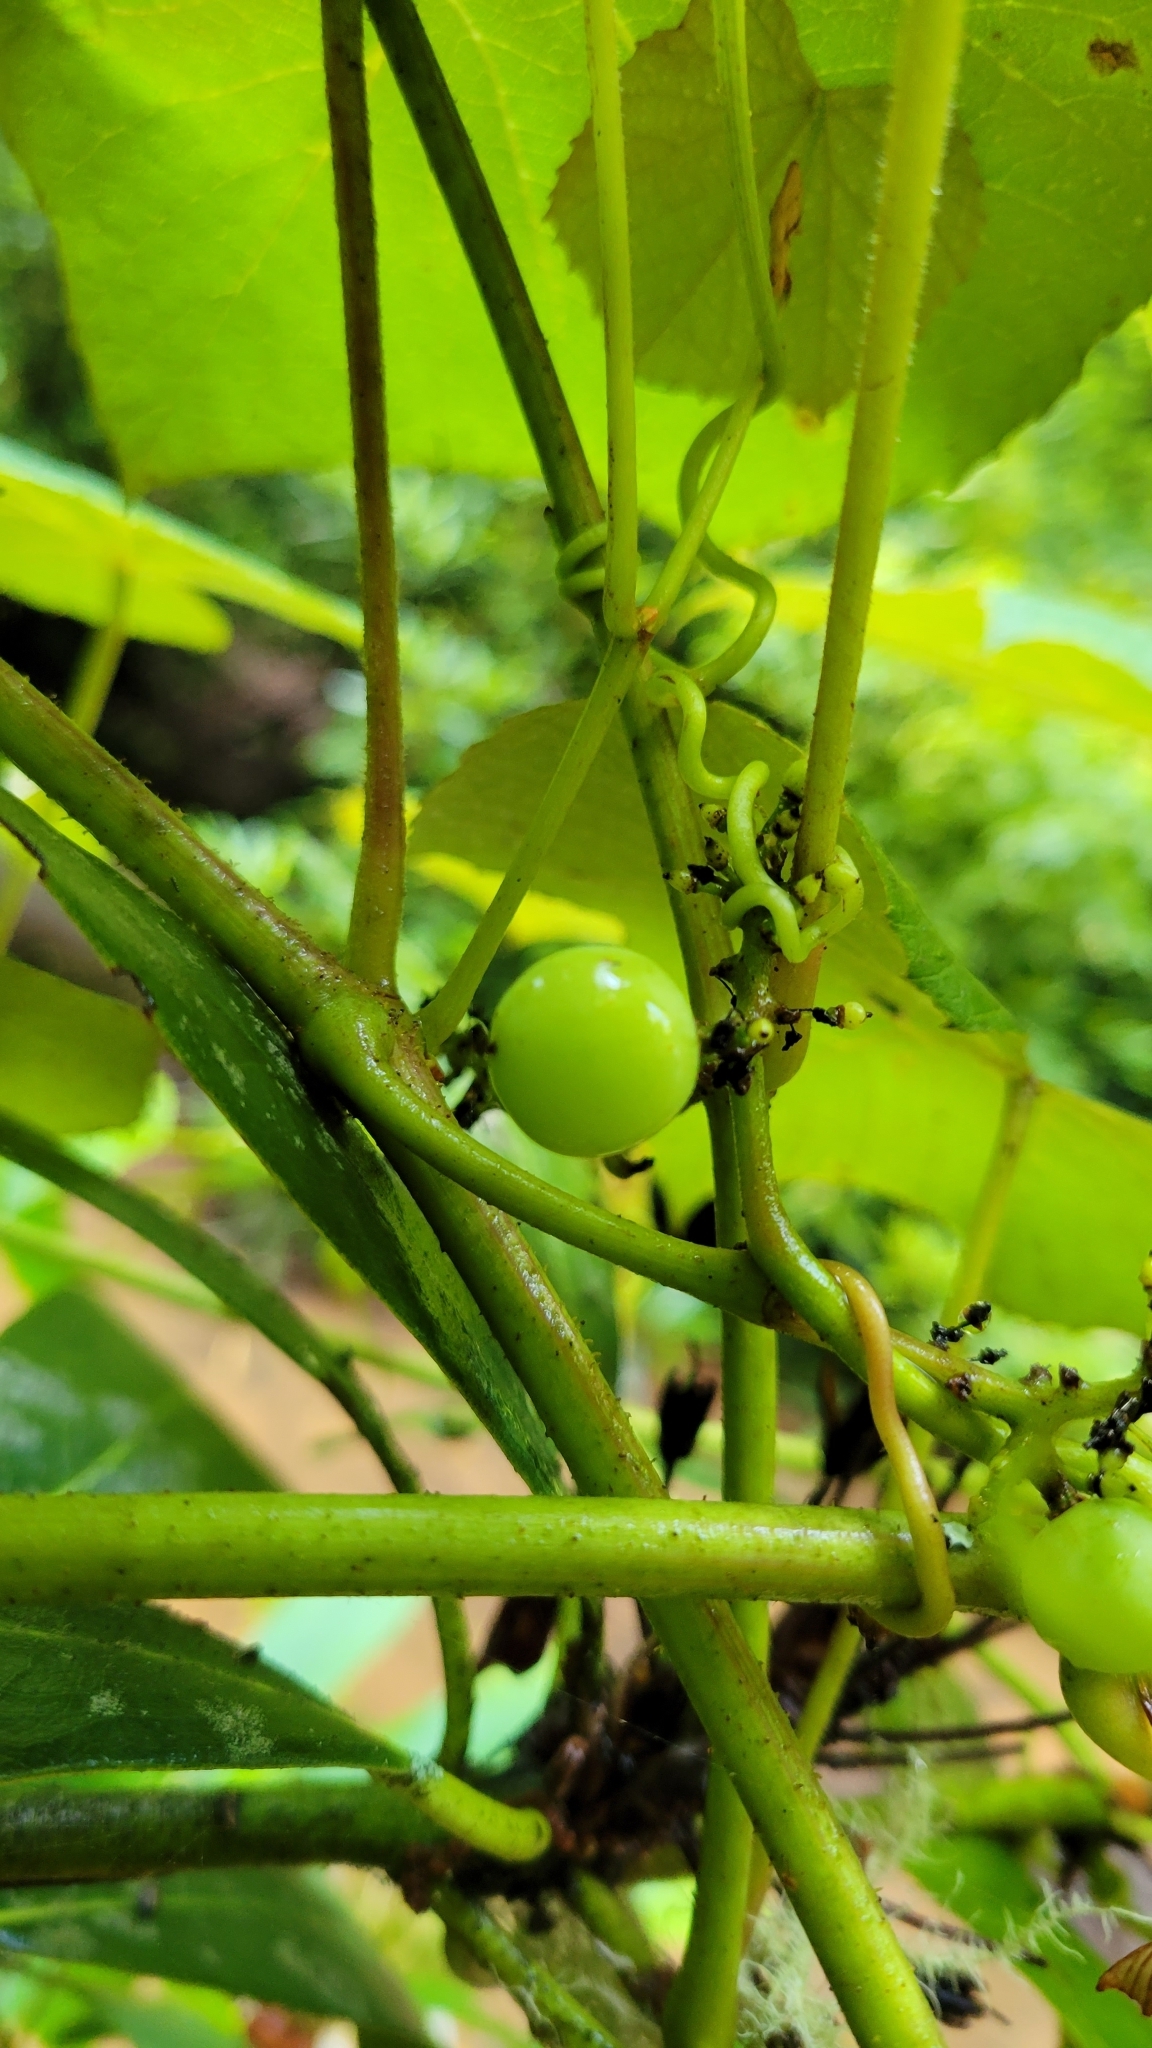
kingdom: Plantae
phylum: Tracheophyta
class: Magnoliopsida
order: Vitales
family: Vitaceae
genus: Vitis
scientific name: Vitis labrusca
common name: Concord grape
